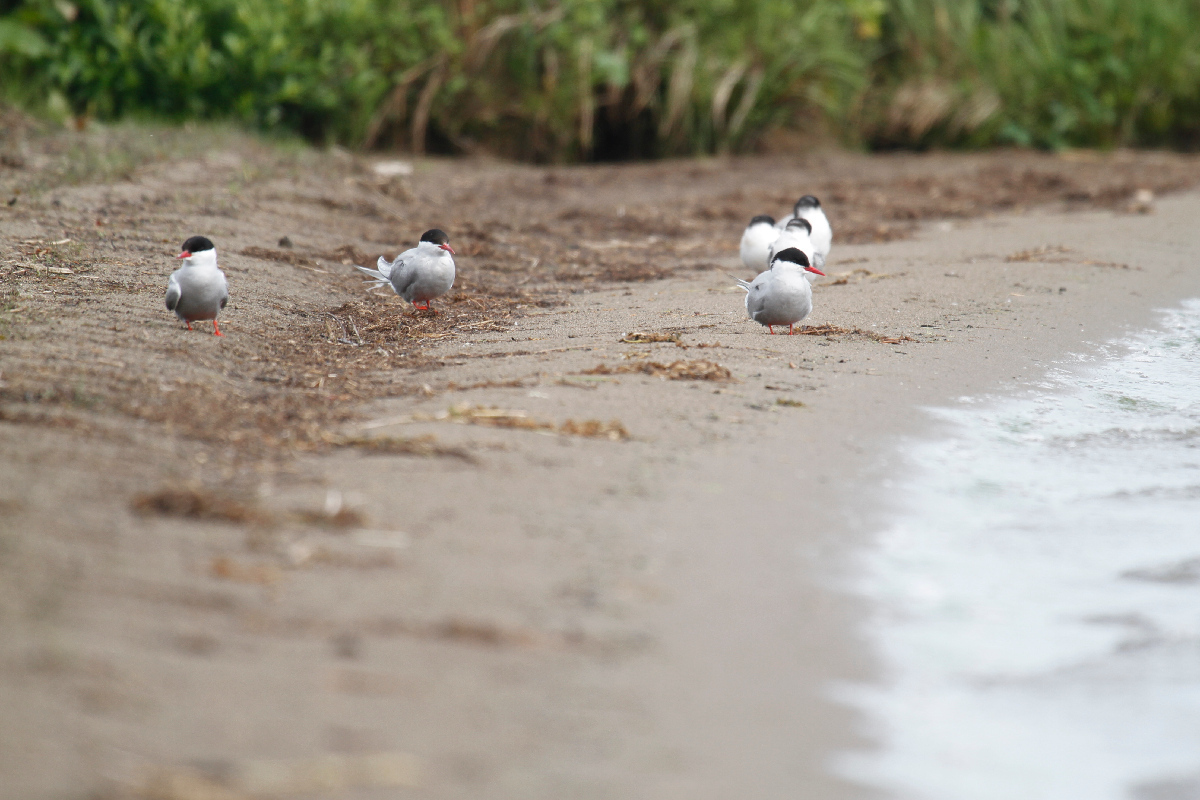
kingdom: Animalia
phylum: Chordata
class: Aves
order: Charadriiformes
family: Laridae
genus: Sterna
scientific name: Sterna paradisaea
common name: Arctic tern
